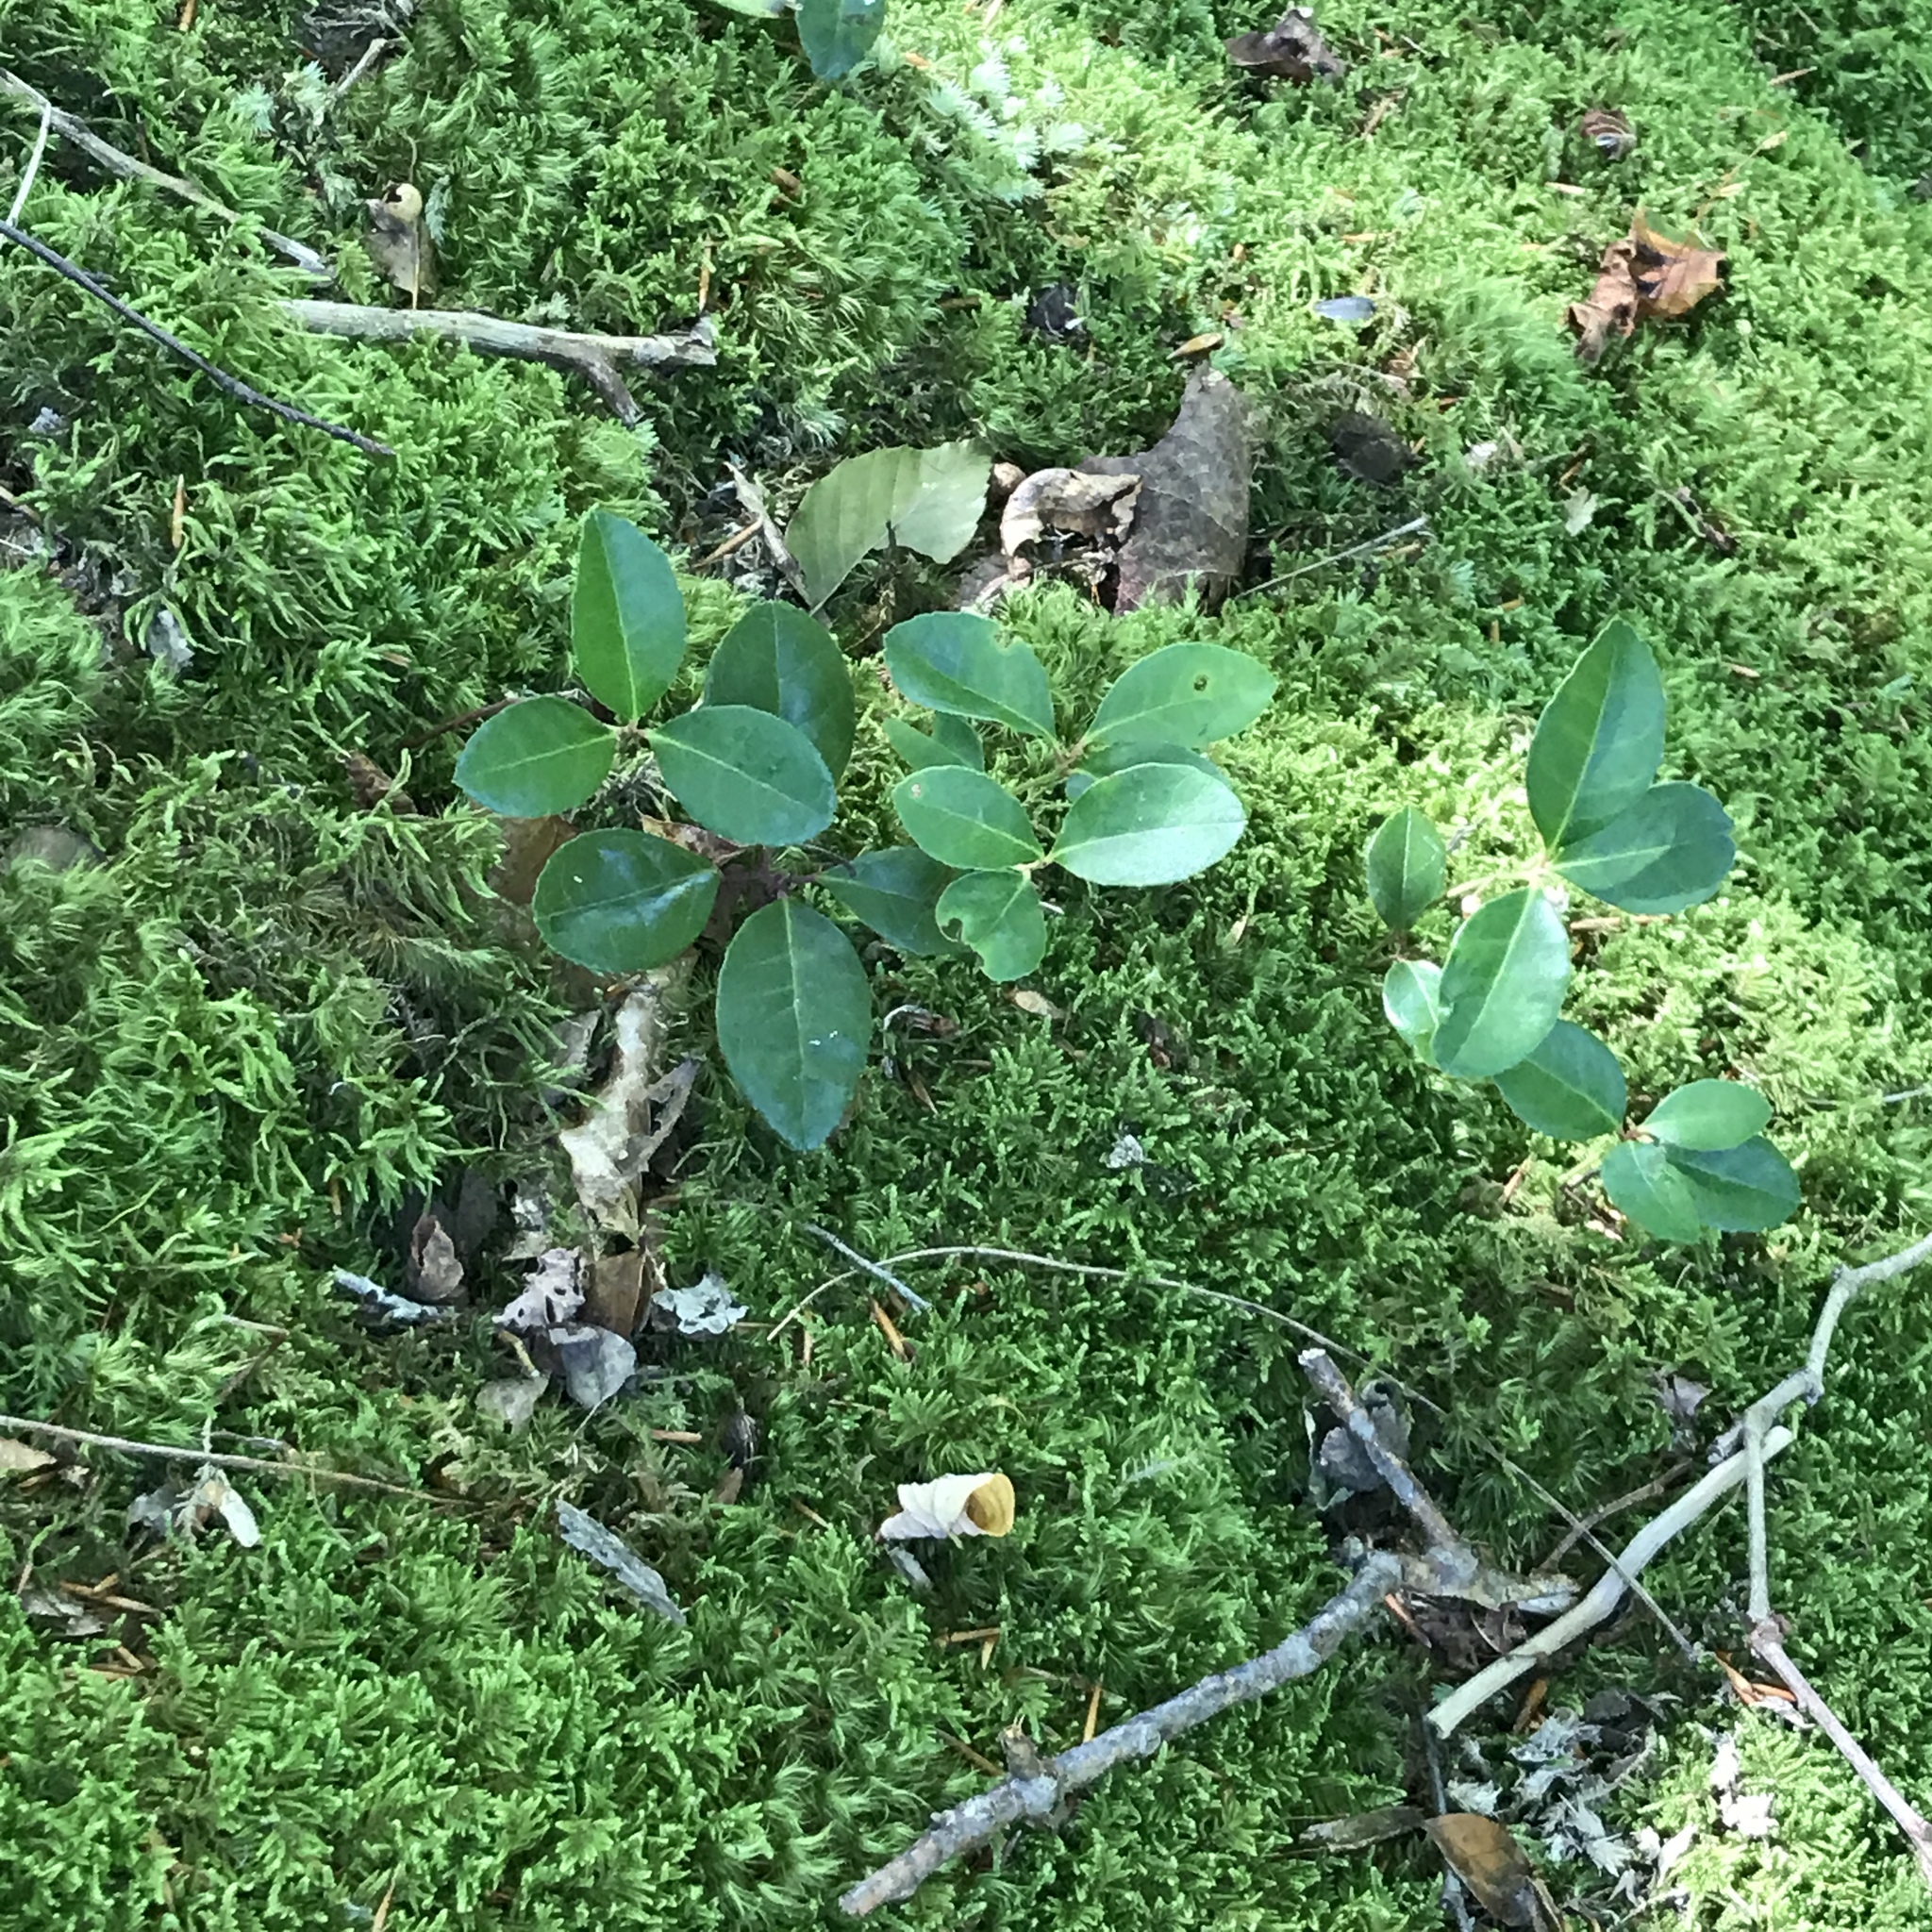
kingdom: Plantae
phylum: Tracheophyta
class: Magnoliopsida
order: Ericales
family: Ericaceae
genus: Gaultheria
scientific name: Gaultheria procumbens
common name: Checkerberry
